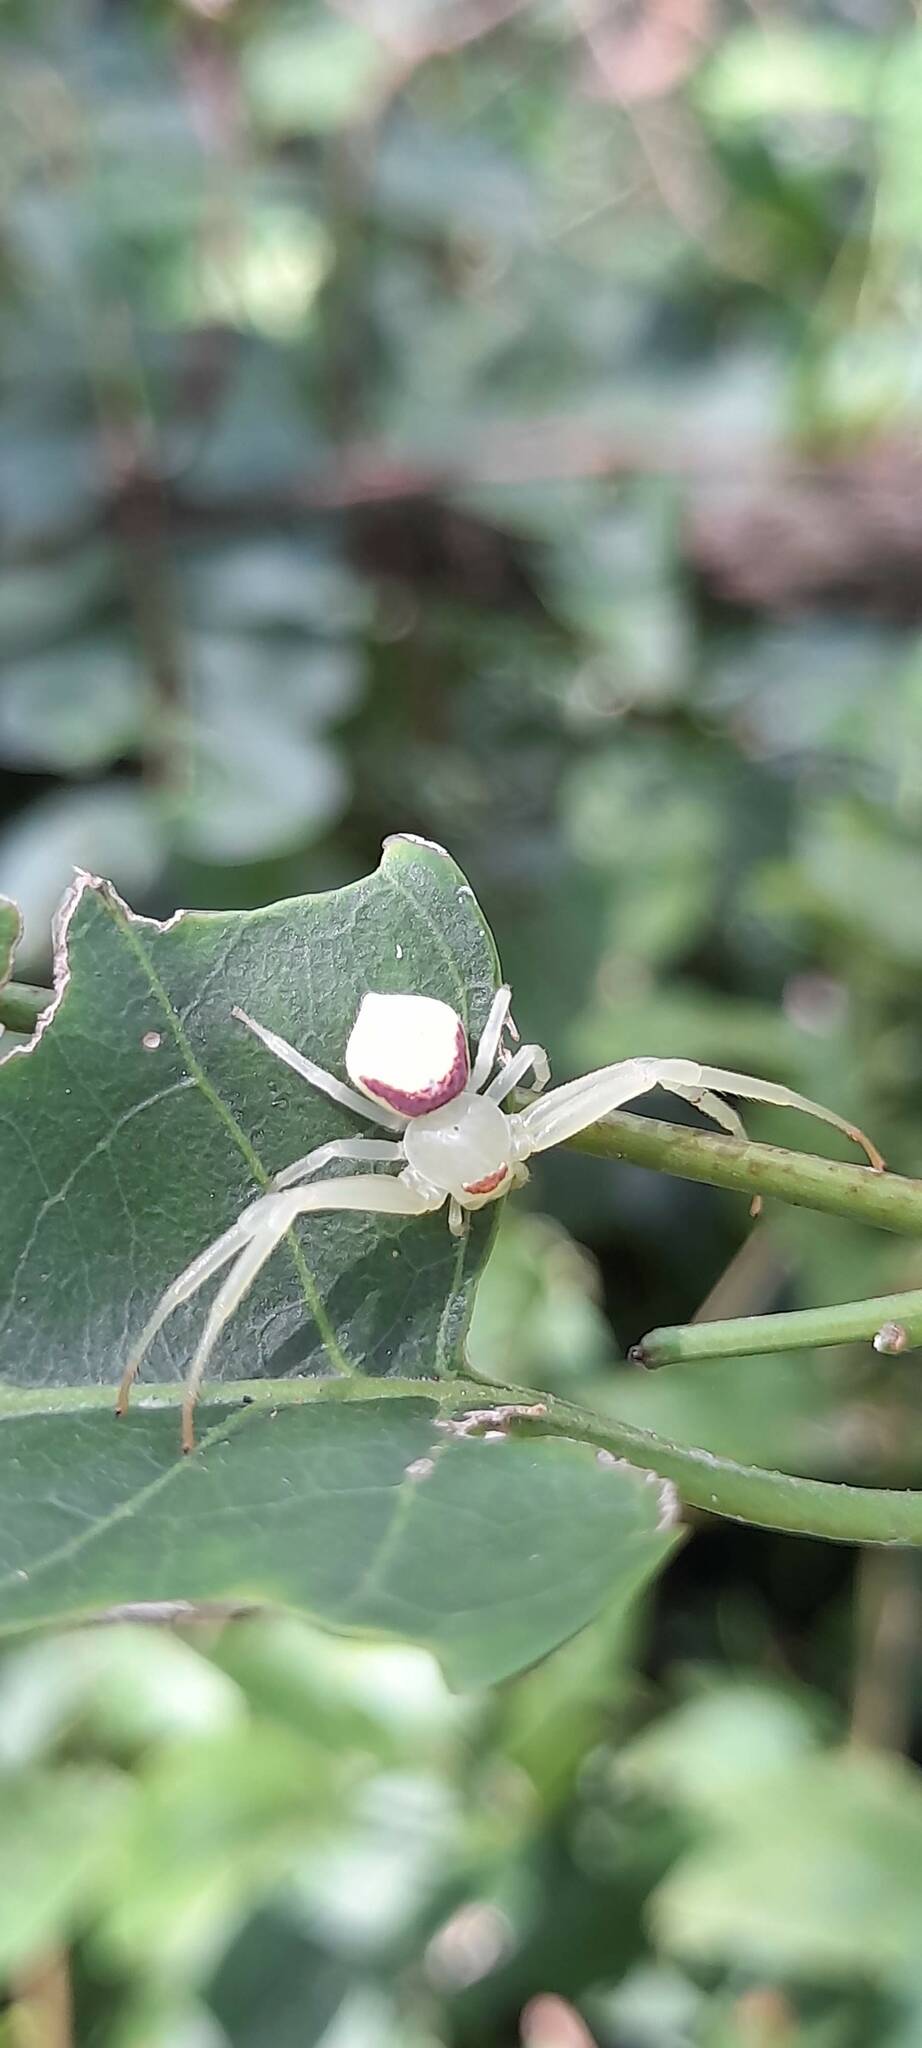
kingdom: Animalia
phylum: Arthropoda
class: Arachnida
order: Araneae
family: Thomisidae
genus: Misumenops
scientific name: Misumenops callinurus
